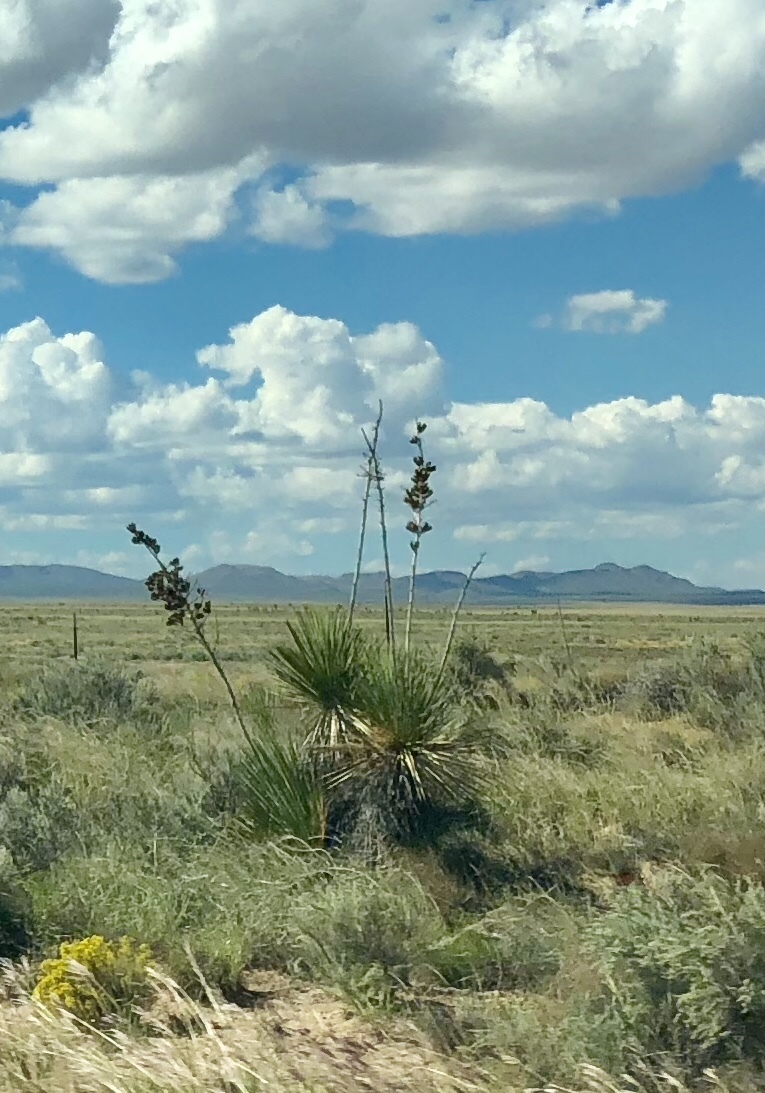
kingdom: Plantae
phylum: Tracheophyta
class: Liliopsida
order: Asparagales
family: Asparagaceae
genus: Yucca
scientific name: Yucca elata
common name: Palmella
